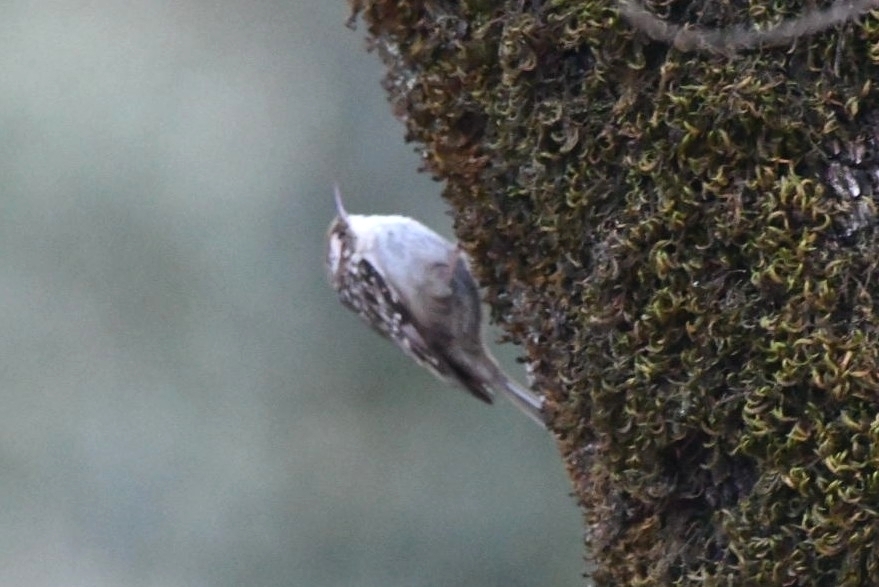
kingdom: Animalia
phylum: Chordata
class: Aves
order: Passeriformes
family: Certhiidae
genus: Certhia
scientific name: Certhia brachydactyla
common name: Short-toed treecreeper
